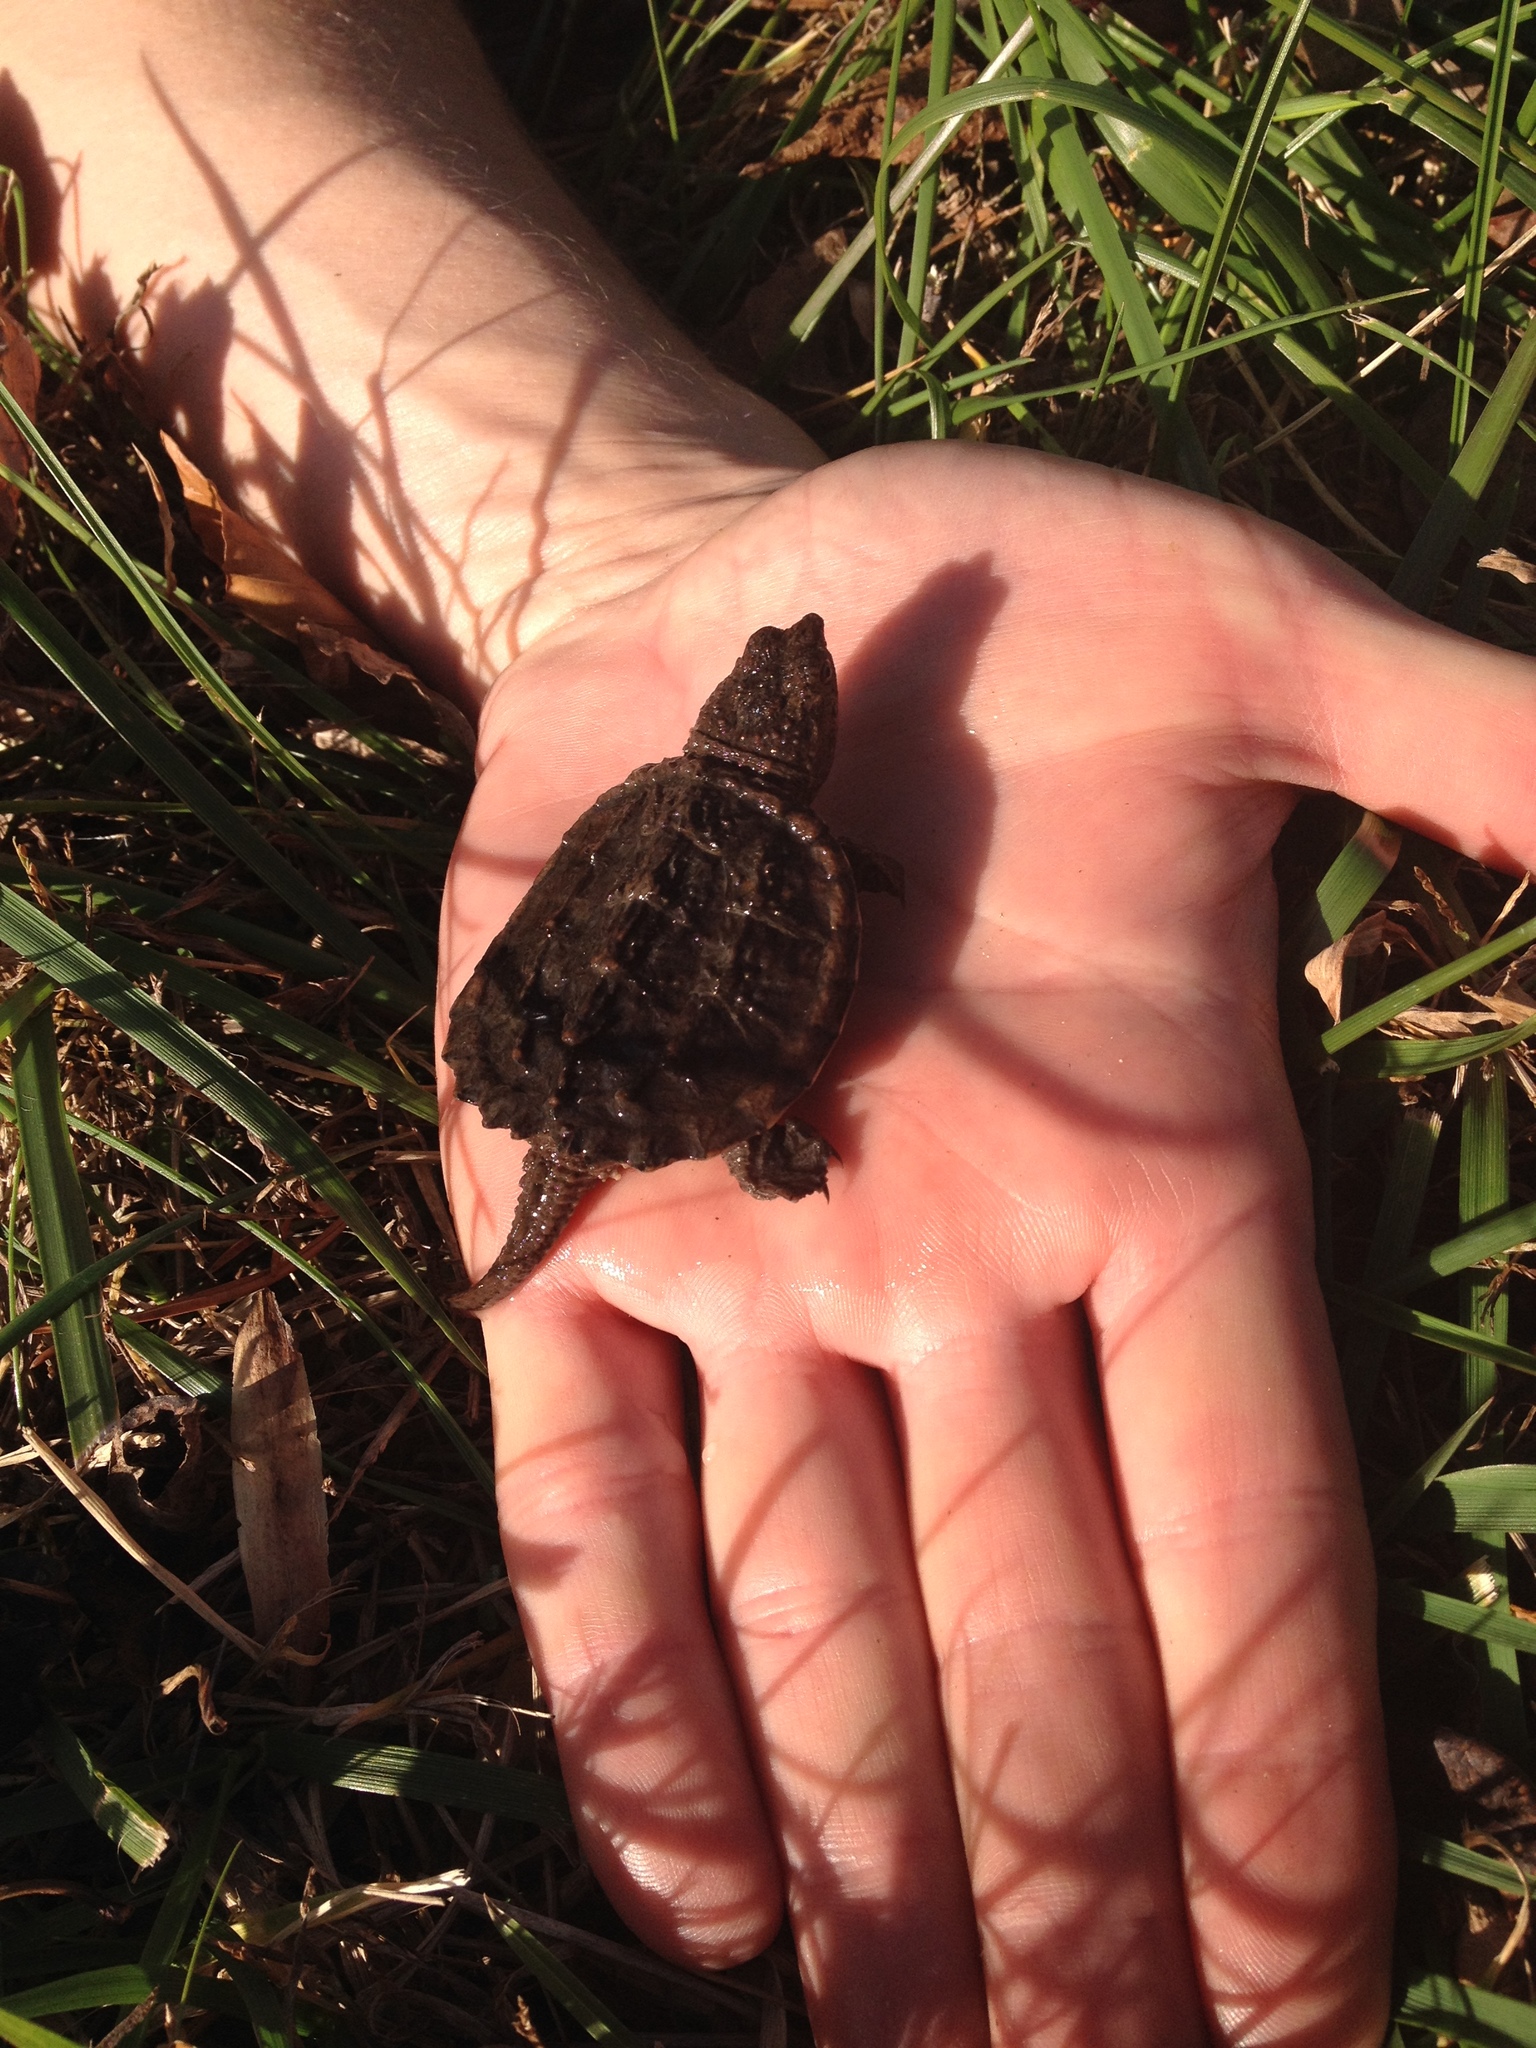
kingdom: Animalia
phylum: Chordata
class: Testudines
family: Chelydridae
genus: Chelydra
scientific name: Chelydra serpentina
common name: Common snapping turtle
